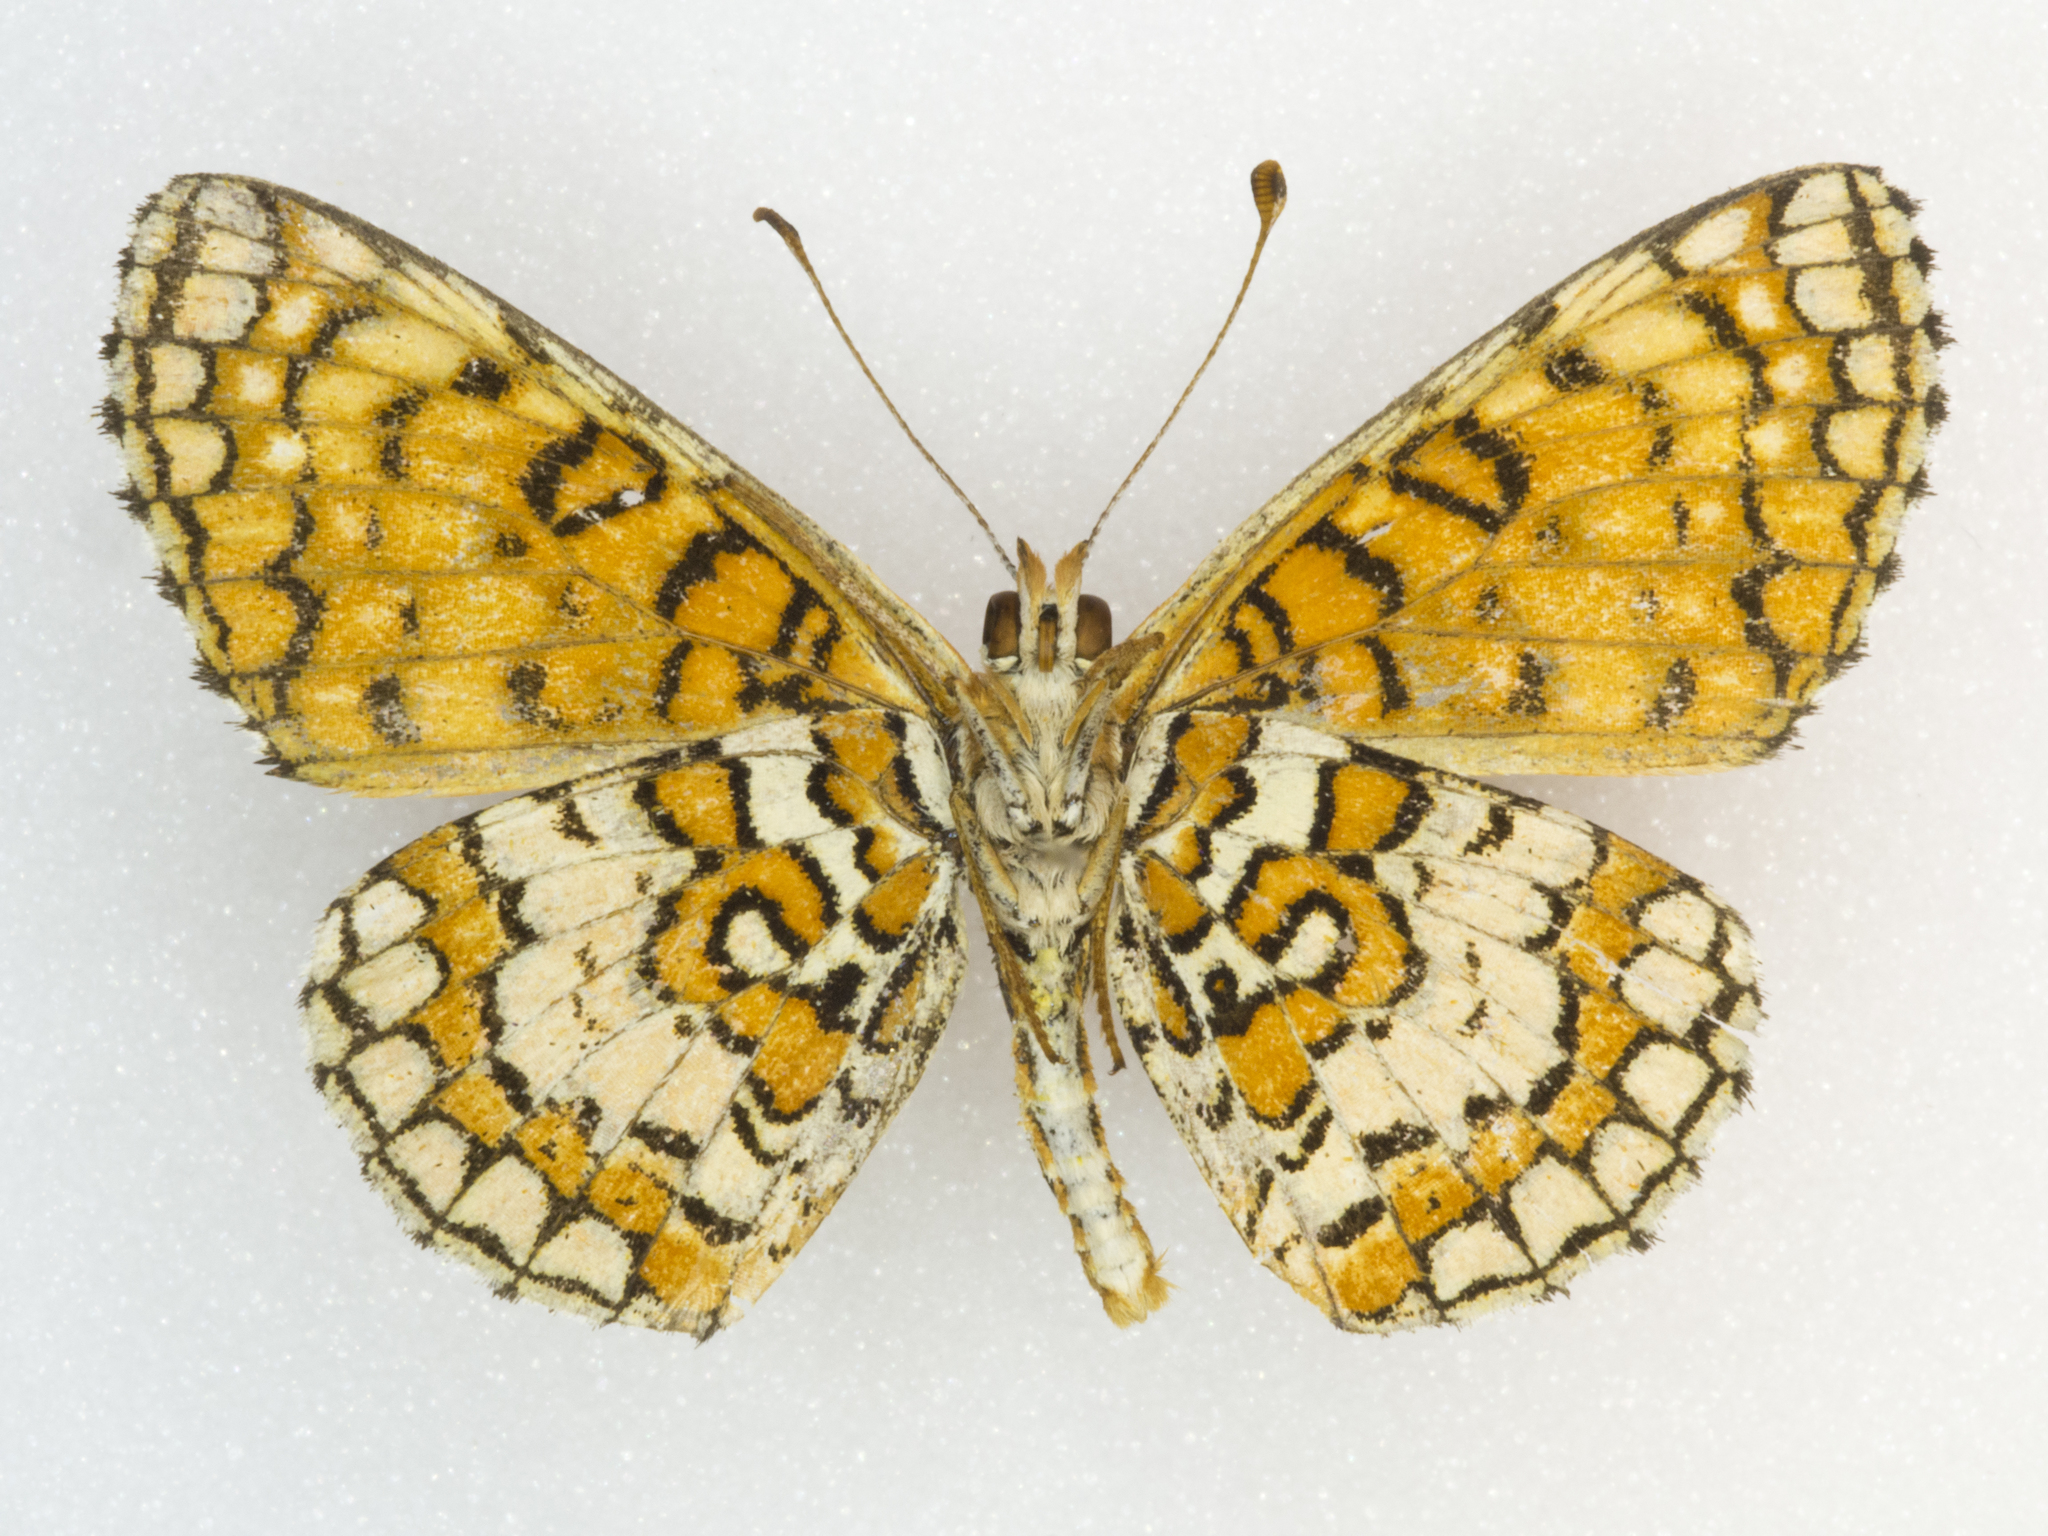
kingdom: Animalia
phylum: Arthropoda
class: Insecta
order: Lepidoptera
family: Nymphalidae
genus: Poladryas
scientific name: Poladryas minuta
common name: Dotted checkerspot
